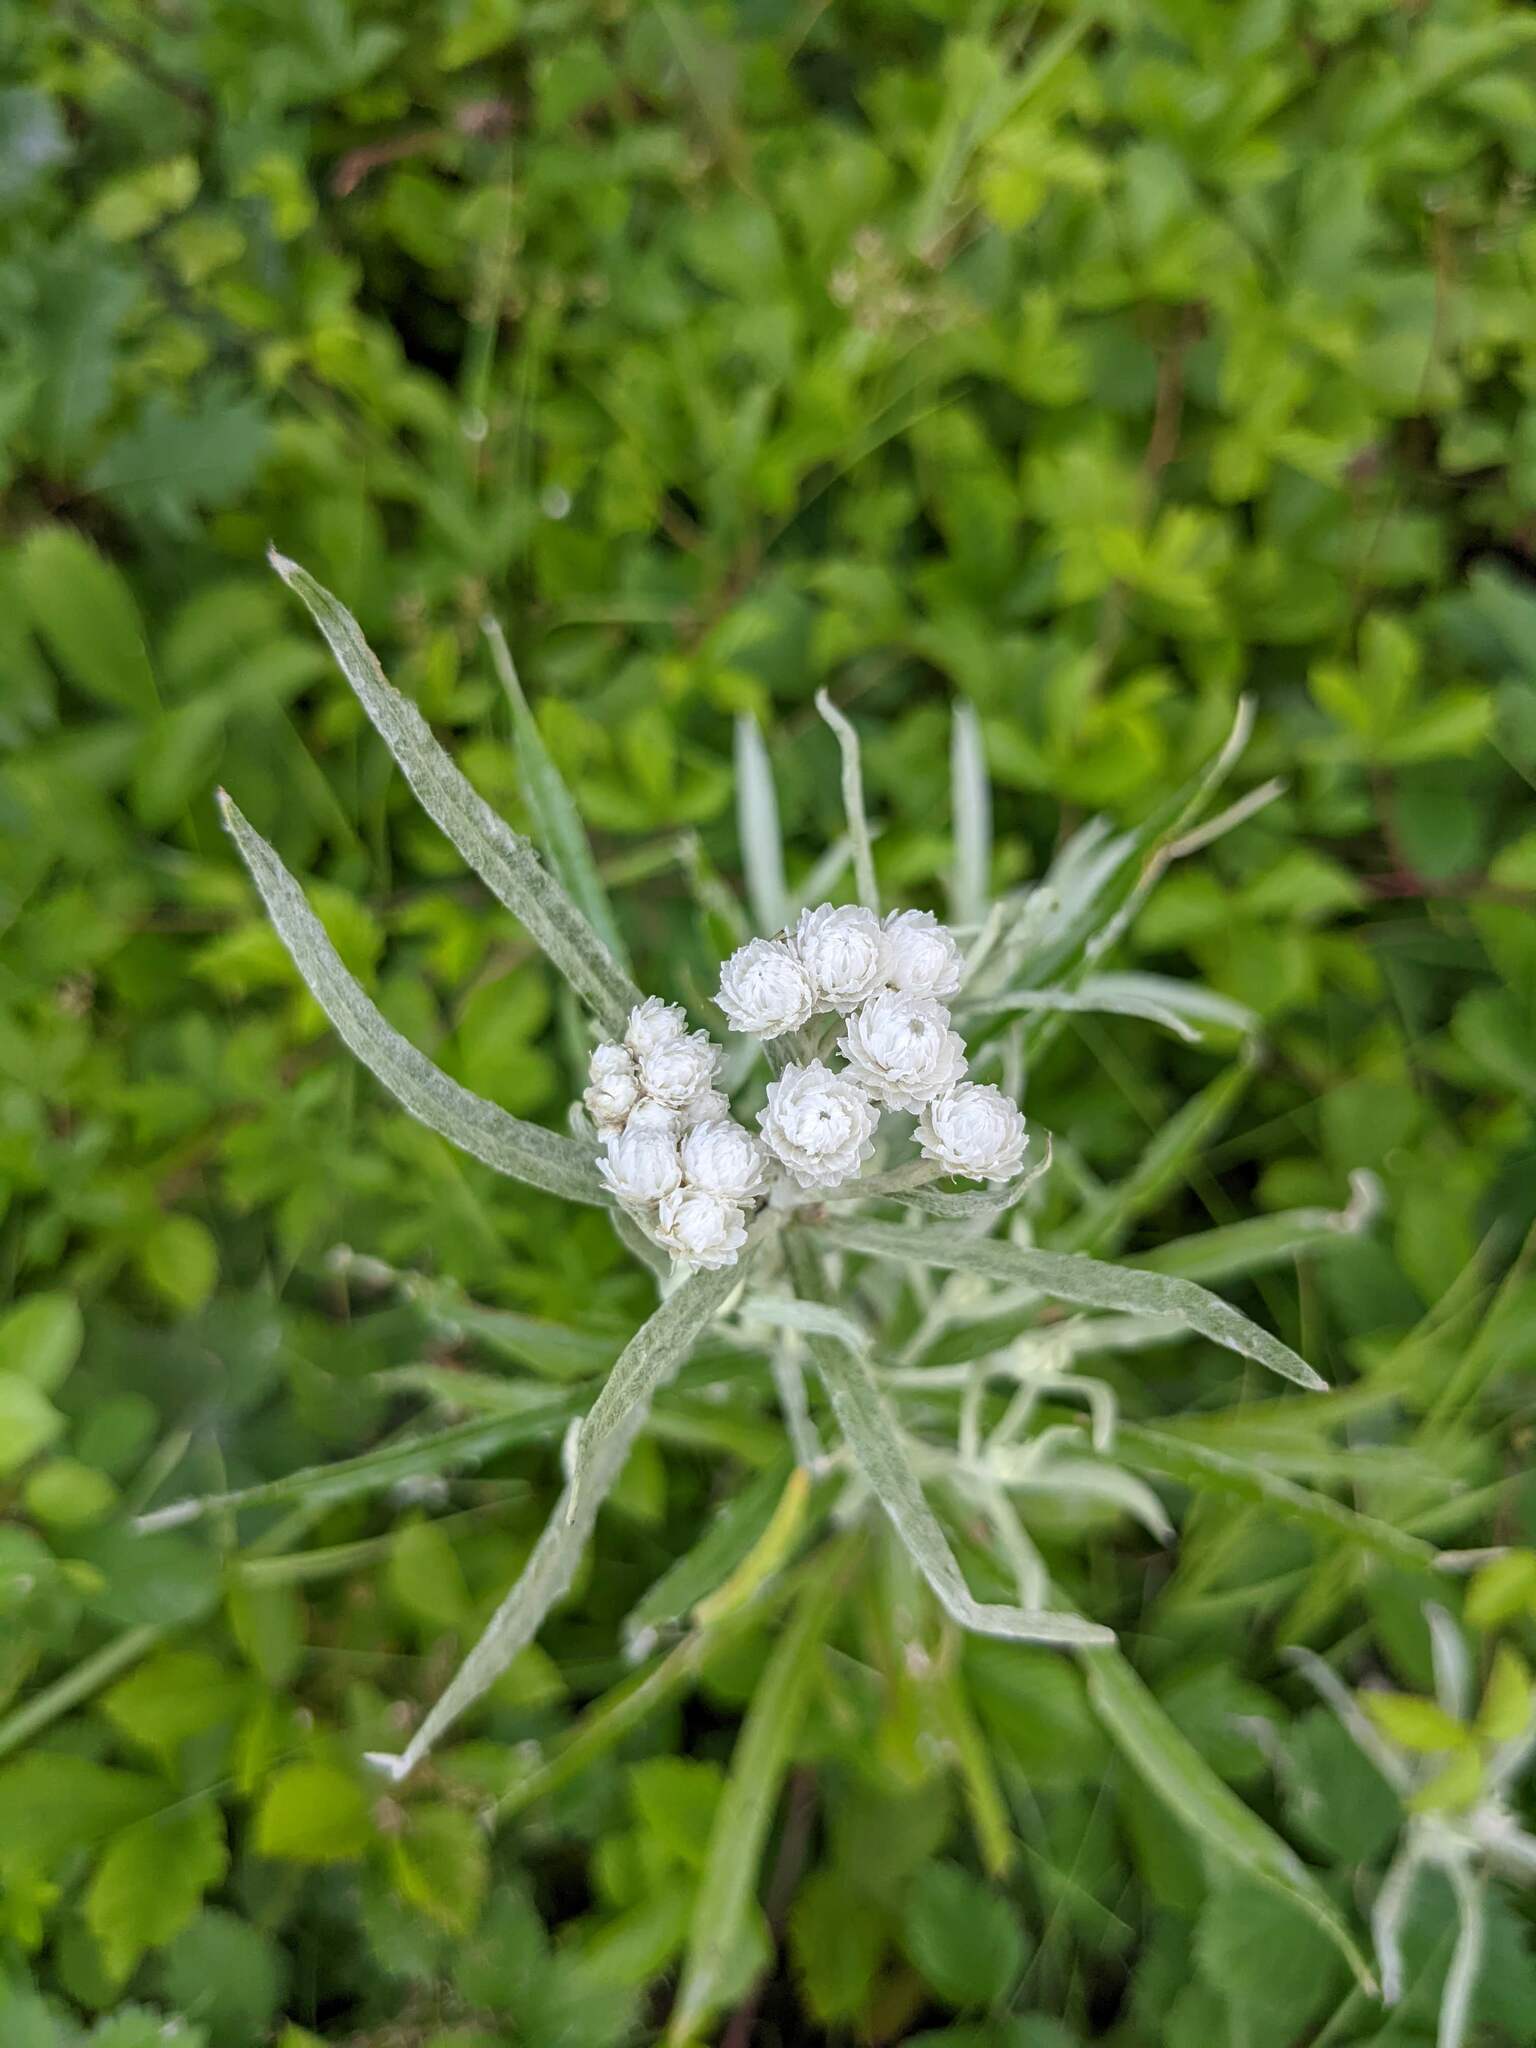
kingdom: Plantae
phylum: Tracheophyta
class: Magnoliopsida
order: Asterales
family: Asteraceae
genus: Anaphalis
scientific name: Anaphalis margaritacea
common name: Pearly everlasting
